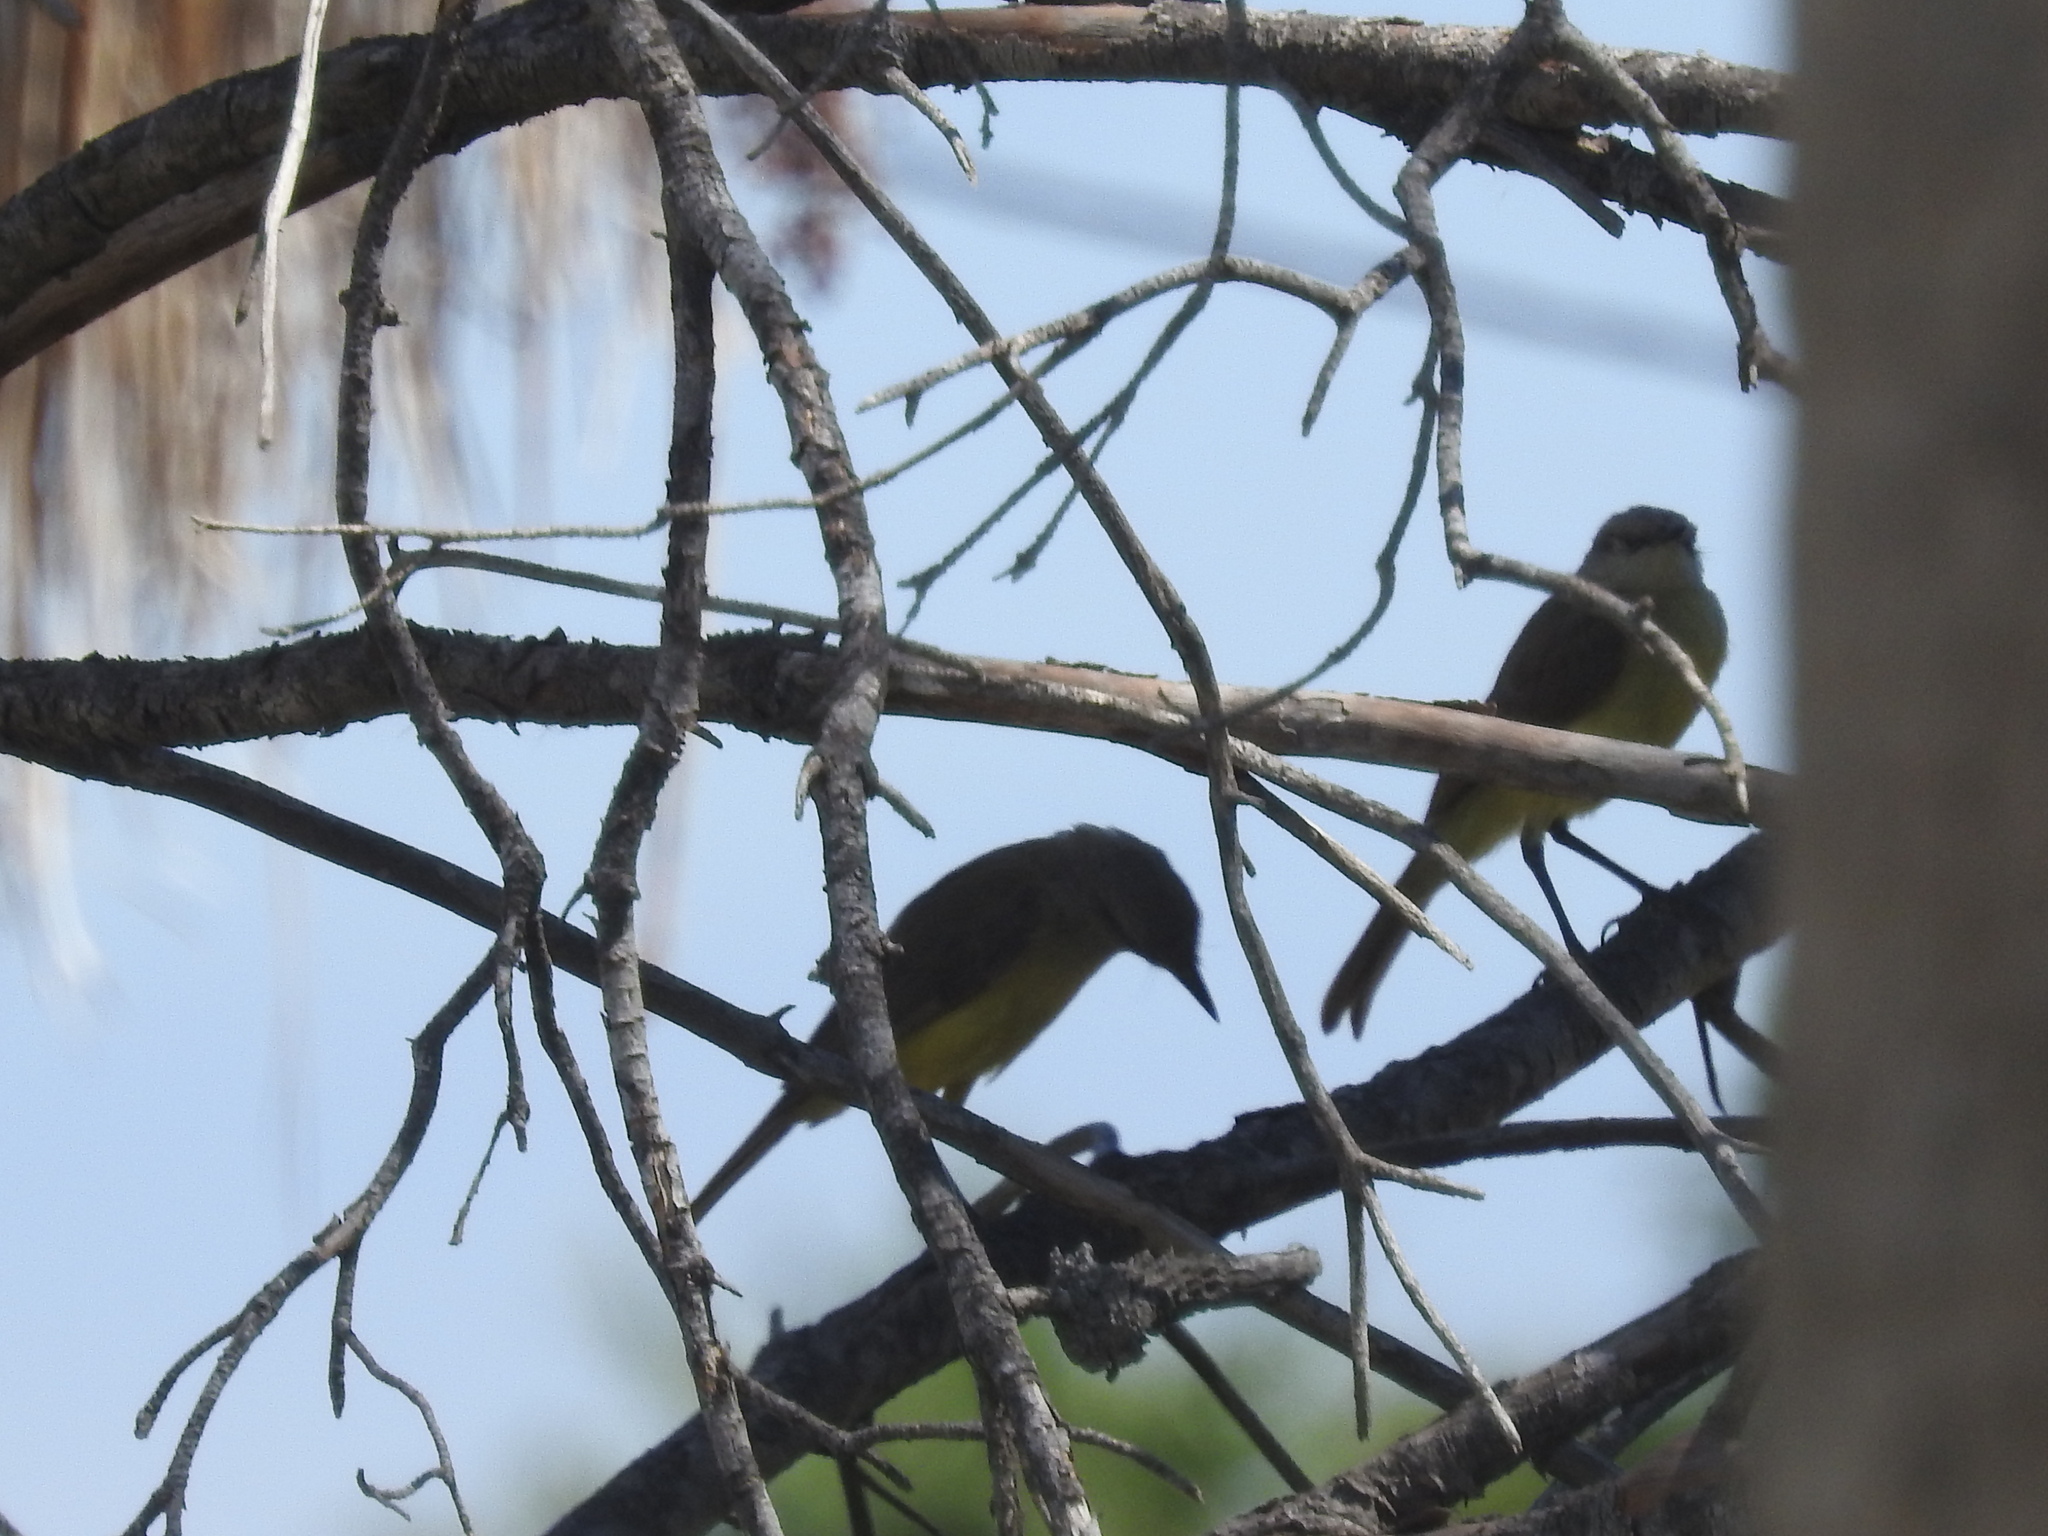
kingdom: Animalia
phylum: Chordata
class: Aves
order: Passeriformes
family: Tyrannidae
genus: Machetornis
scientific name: Machetornis rixosa
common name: Cattle tyrant
